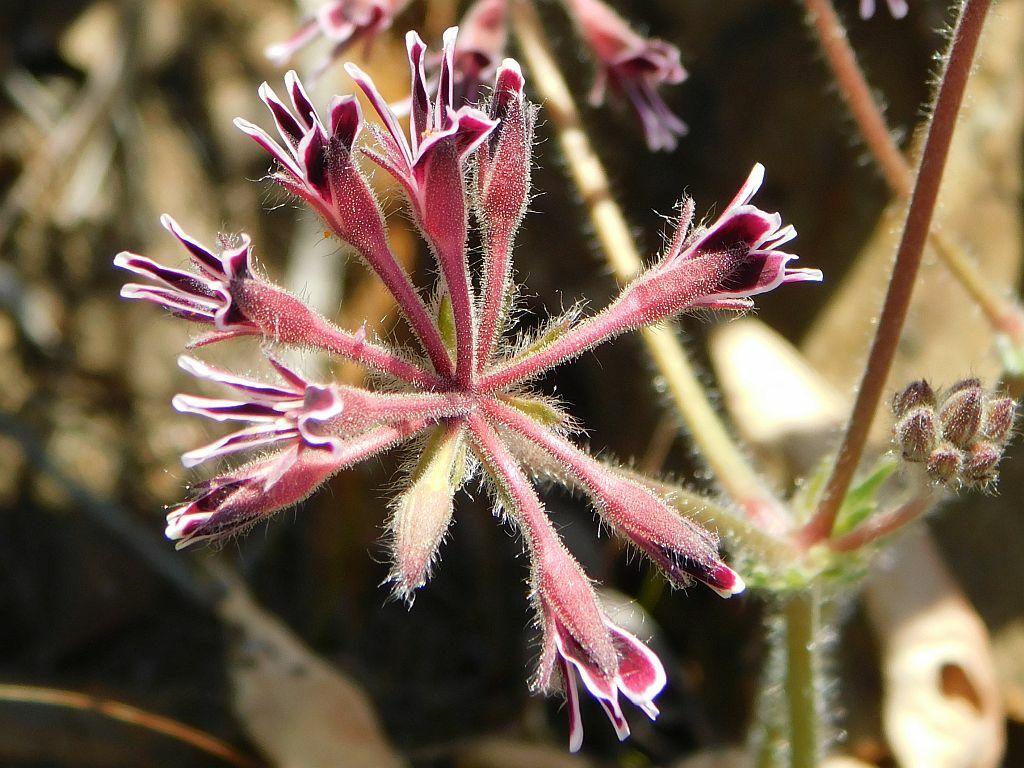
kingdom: Plantae
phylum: Tracheophyta
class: Magnoliopsida
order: Geraniales
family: Geraniaceae
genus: Pelargonium
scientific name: Pelargonium pilosellifolium
